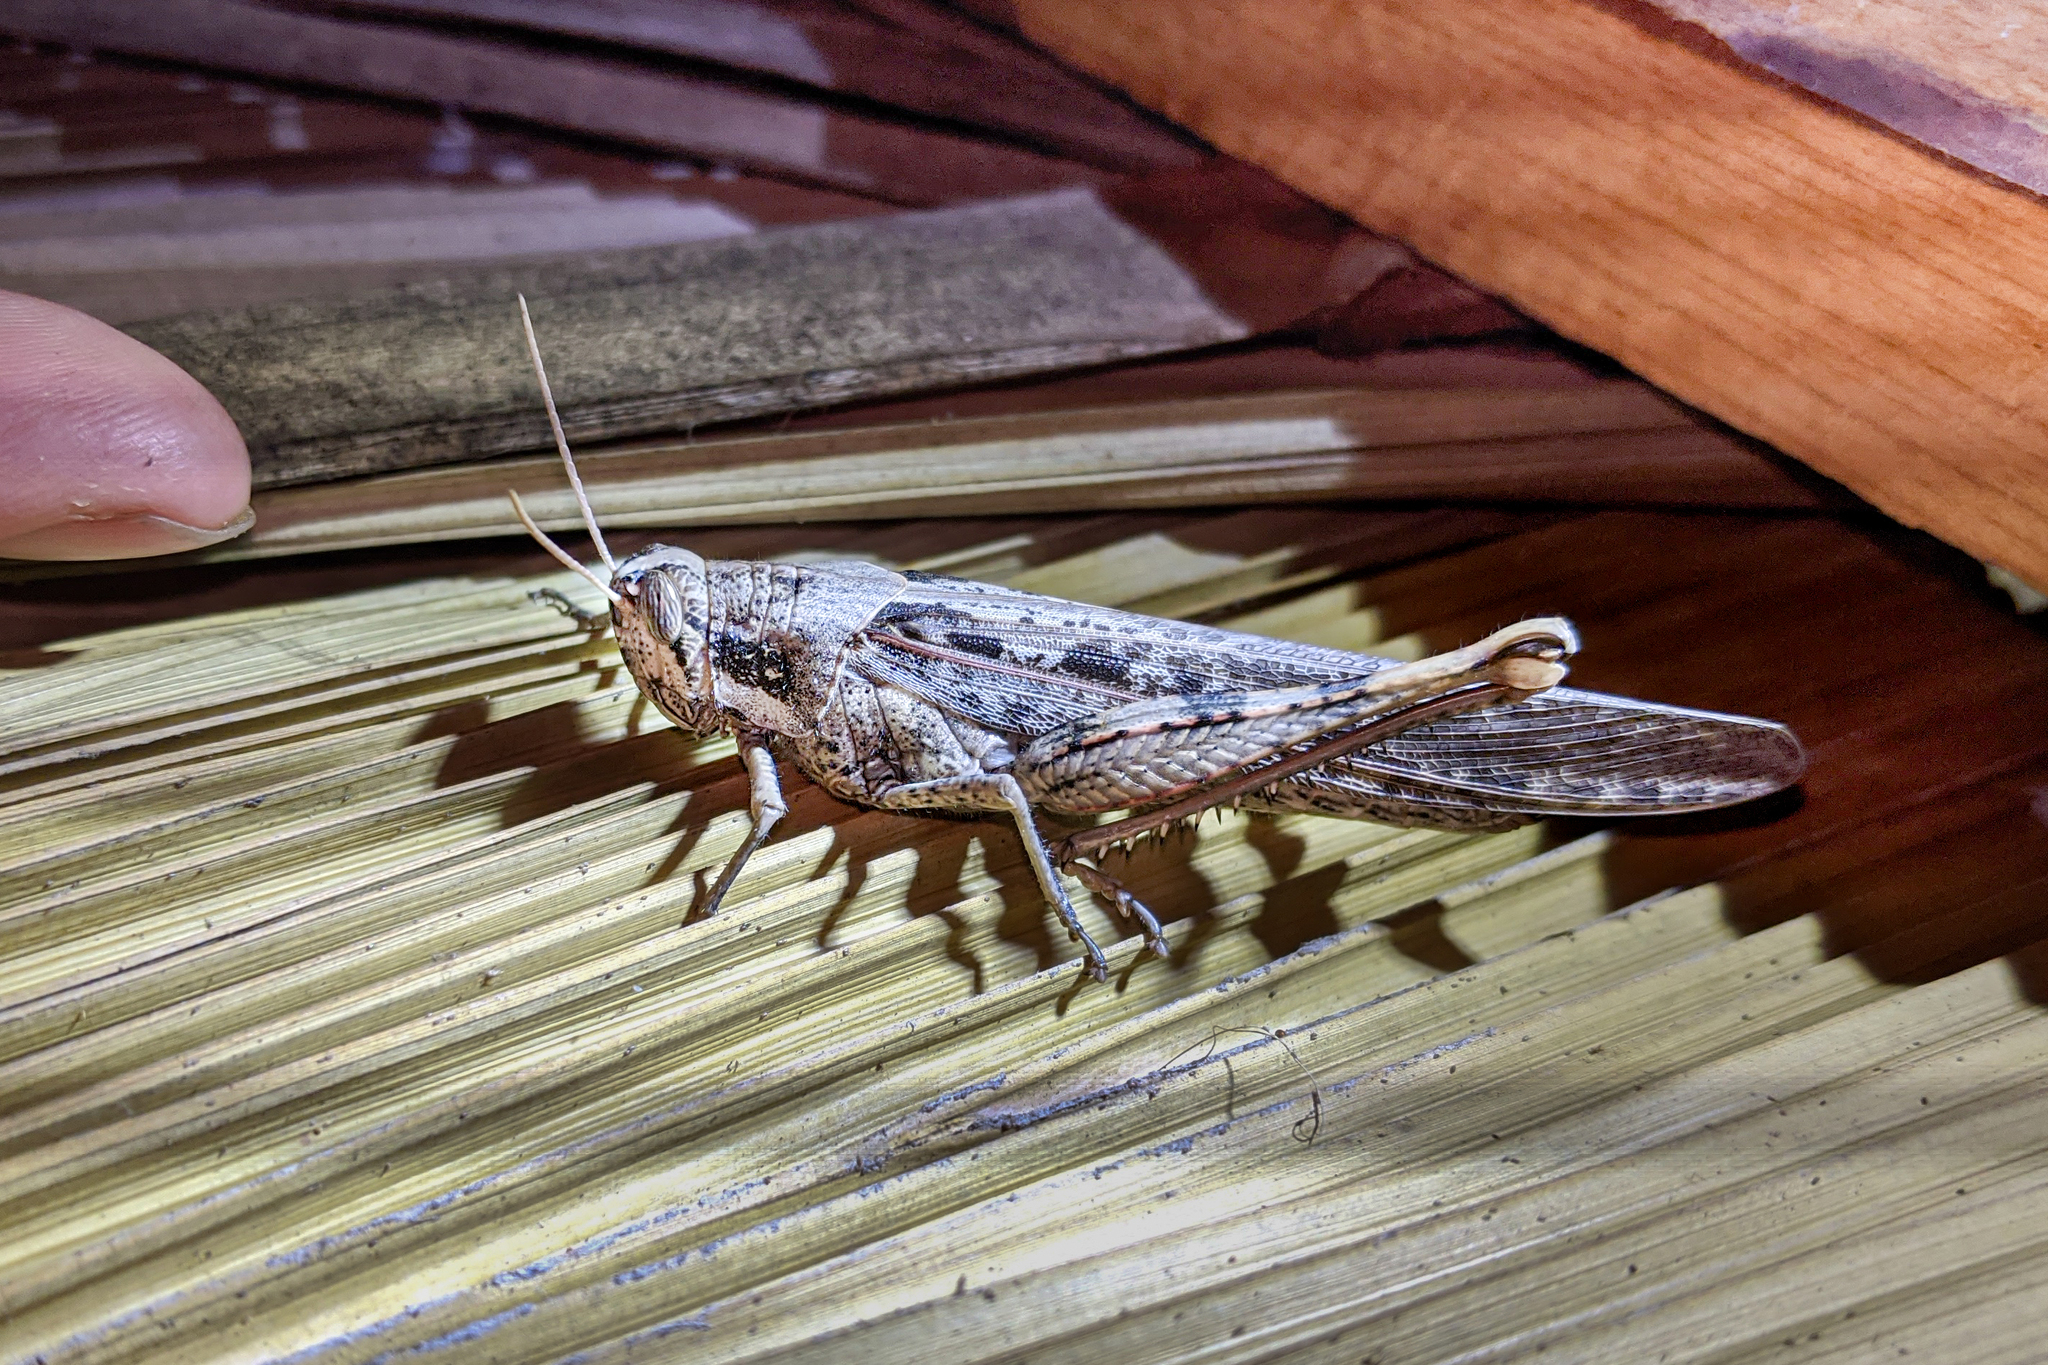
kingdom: Animalia
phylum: Arthropoda
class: Insecta
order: Orthoptera
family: Acrididae
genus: Schistocerca
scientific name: Schistocerca nitens
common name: Vagrant grasshopper
